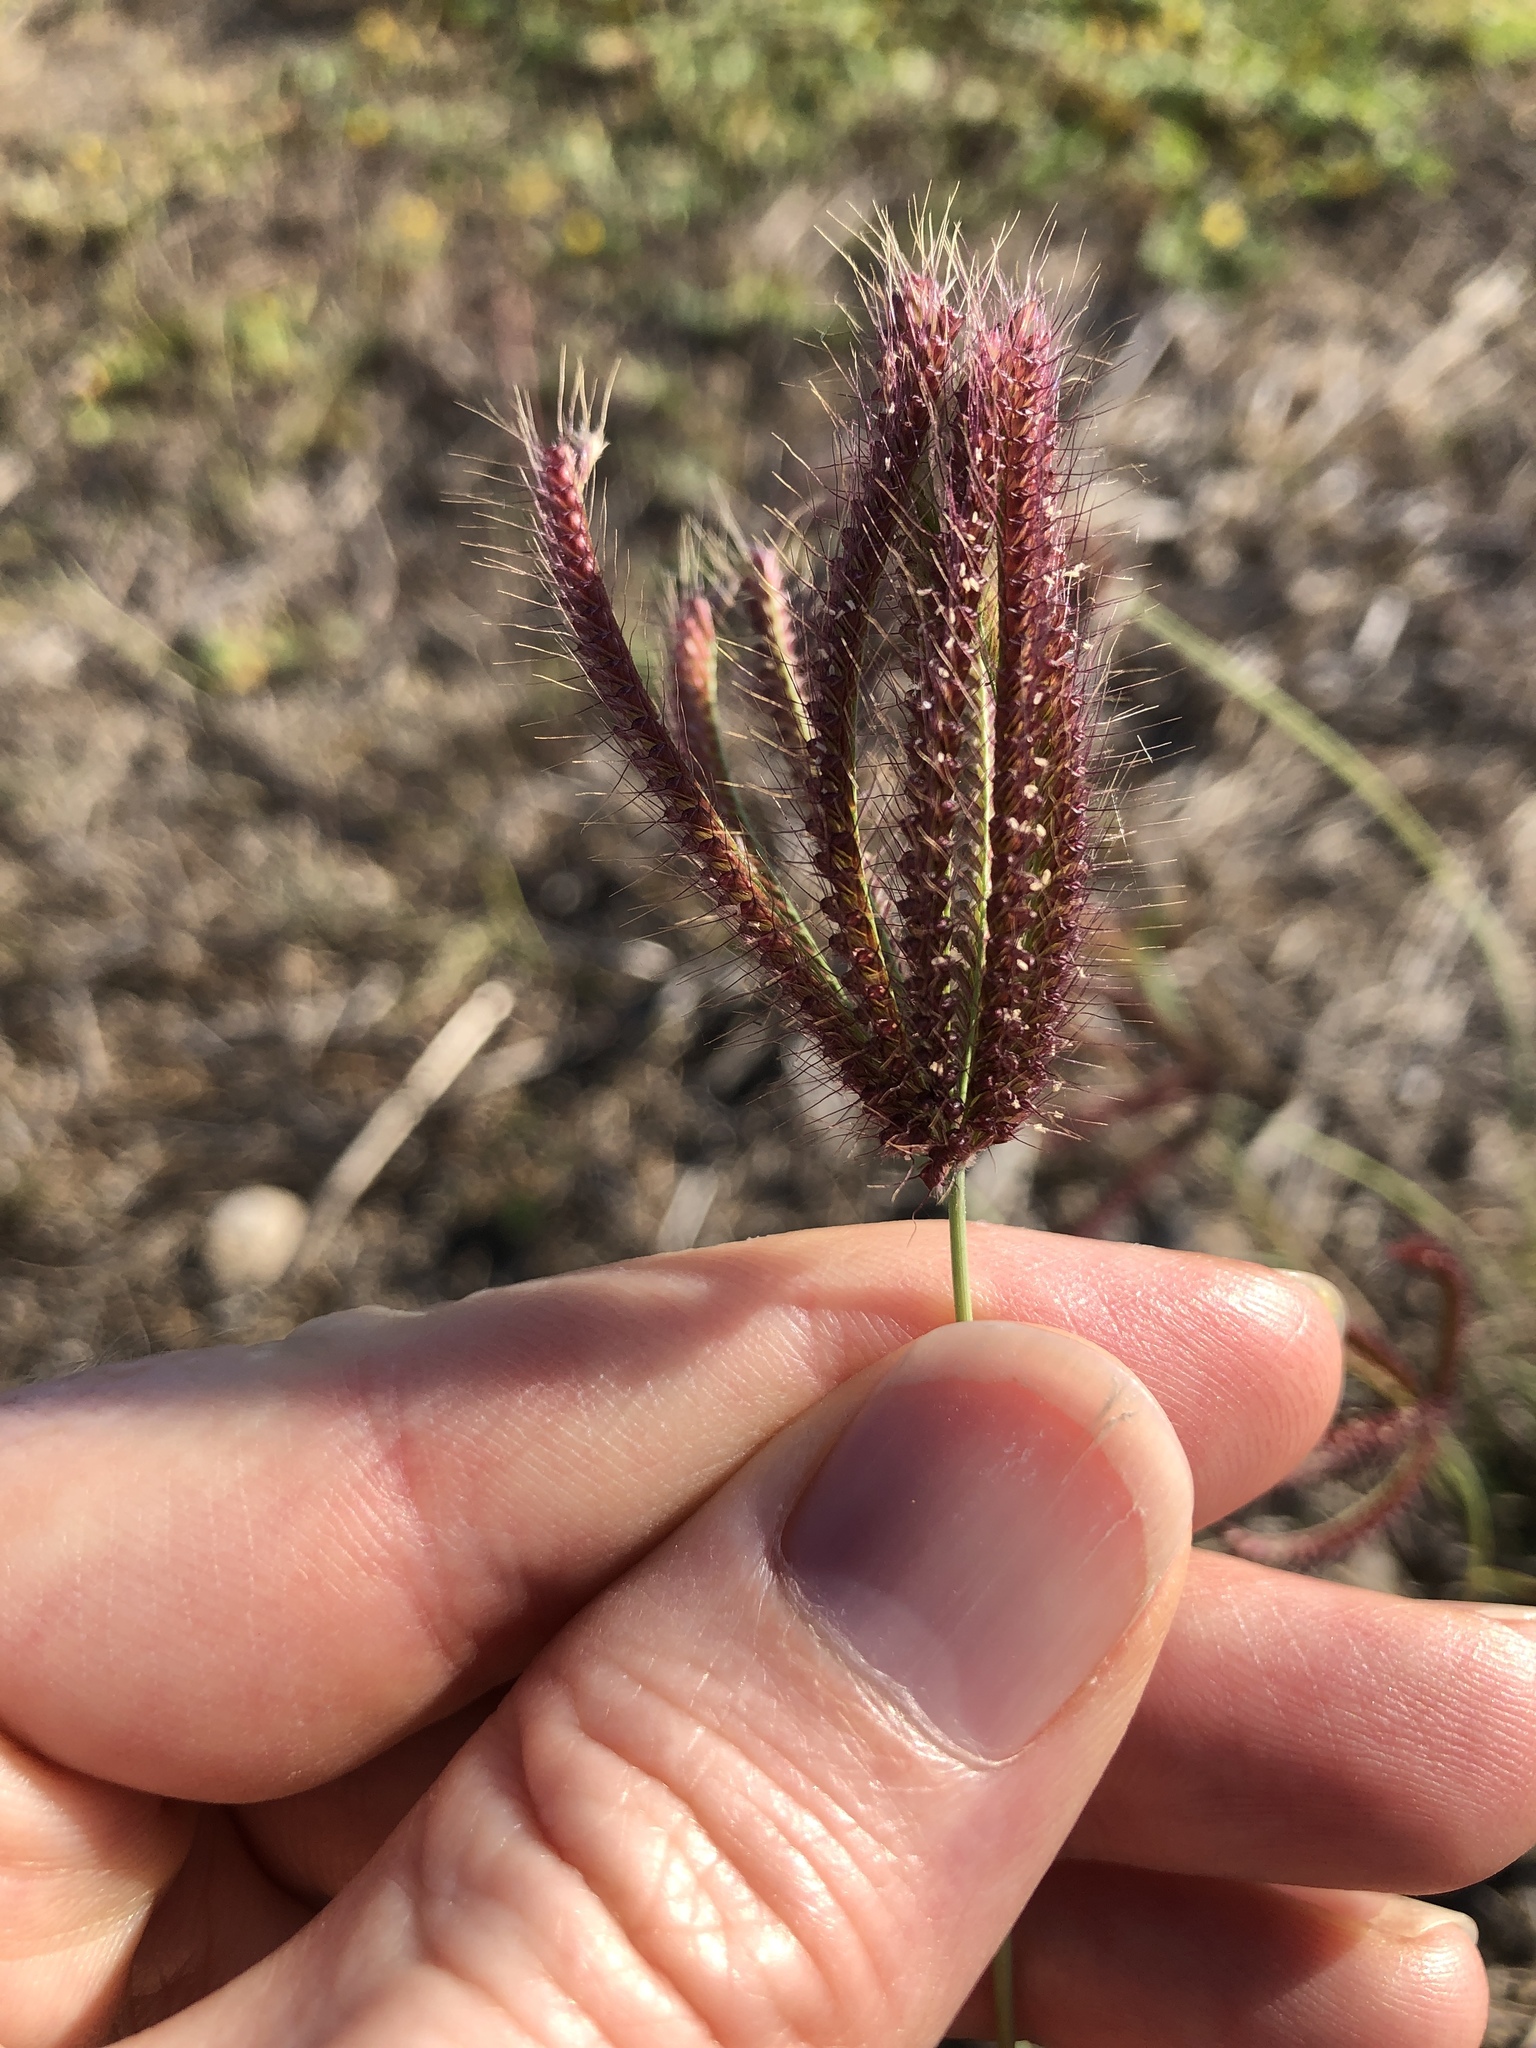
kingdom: Plantae
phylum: Tracheophyta
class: Liliopsida
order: Poales
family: Poaceae
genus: Chloris
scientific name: Chloris barbata
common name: Swollen fingergrass
